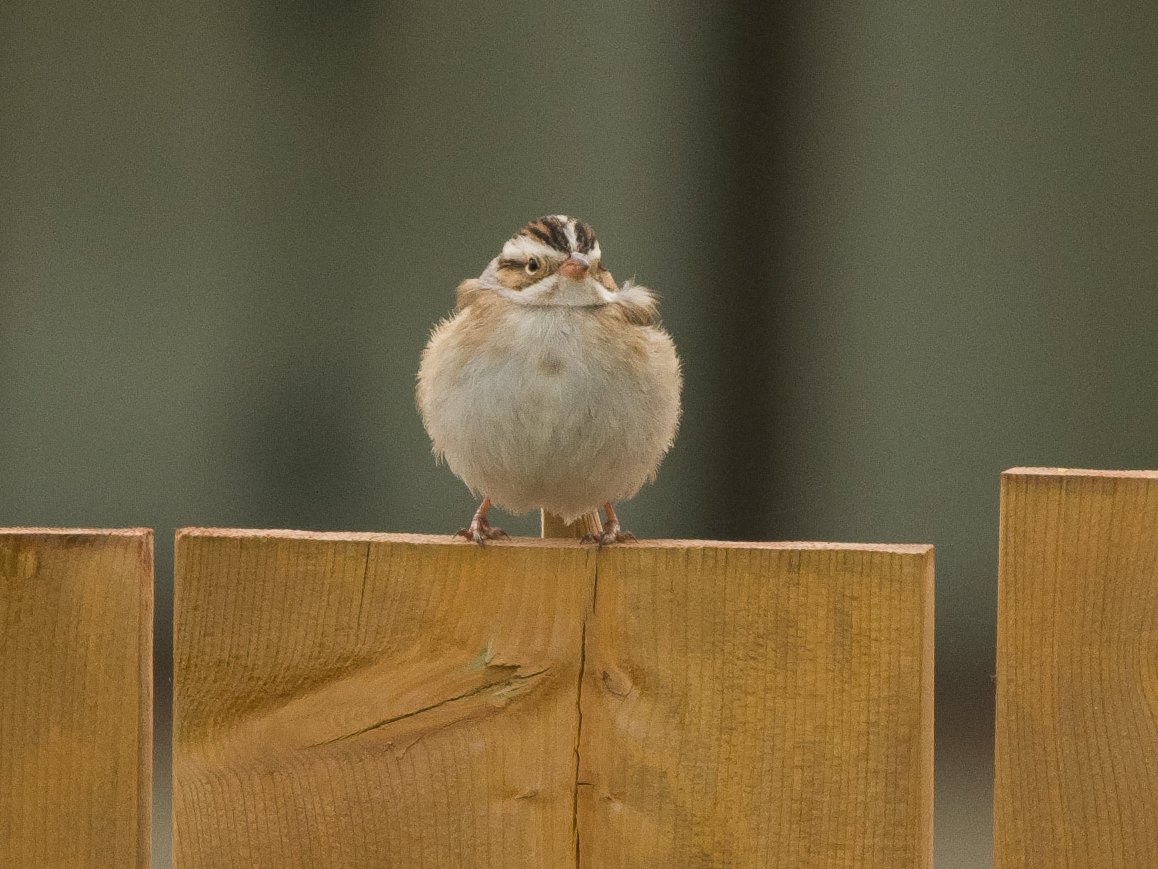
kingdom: Animalia
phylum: Chordata
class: Aves
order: Passeriformes
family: Passerellidae
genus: Spizella
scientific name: Spizella pallida
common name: Clay-colored sparrow
